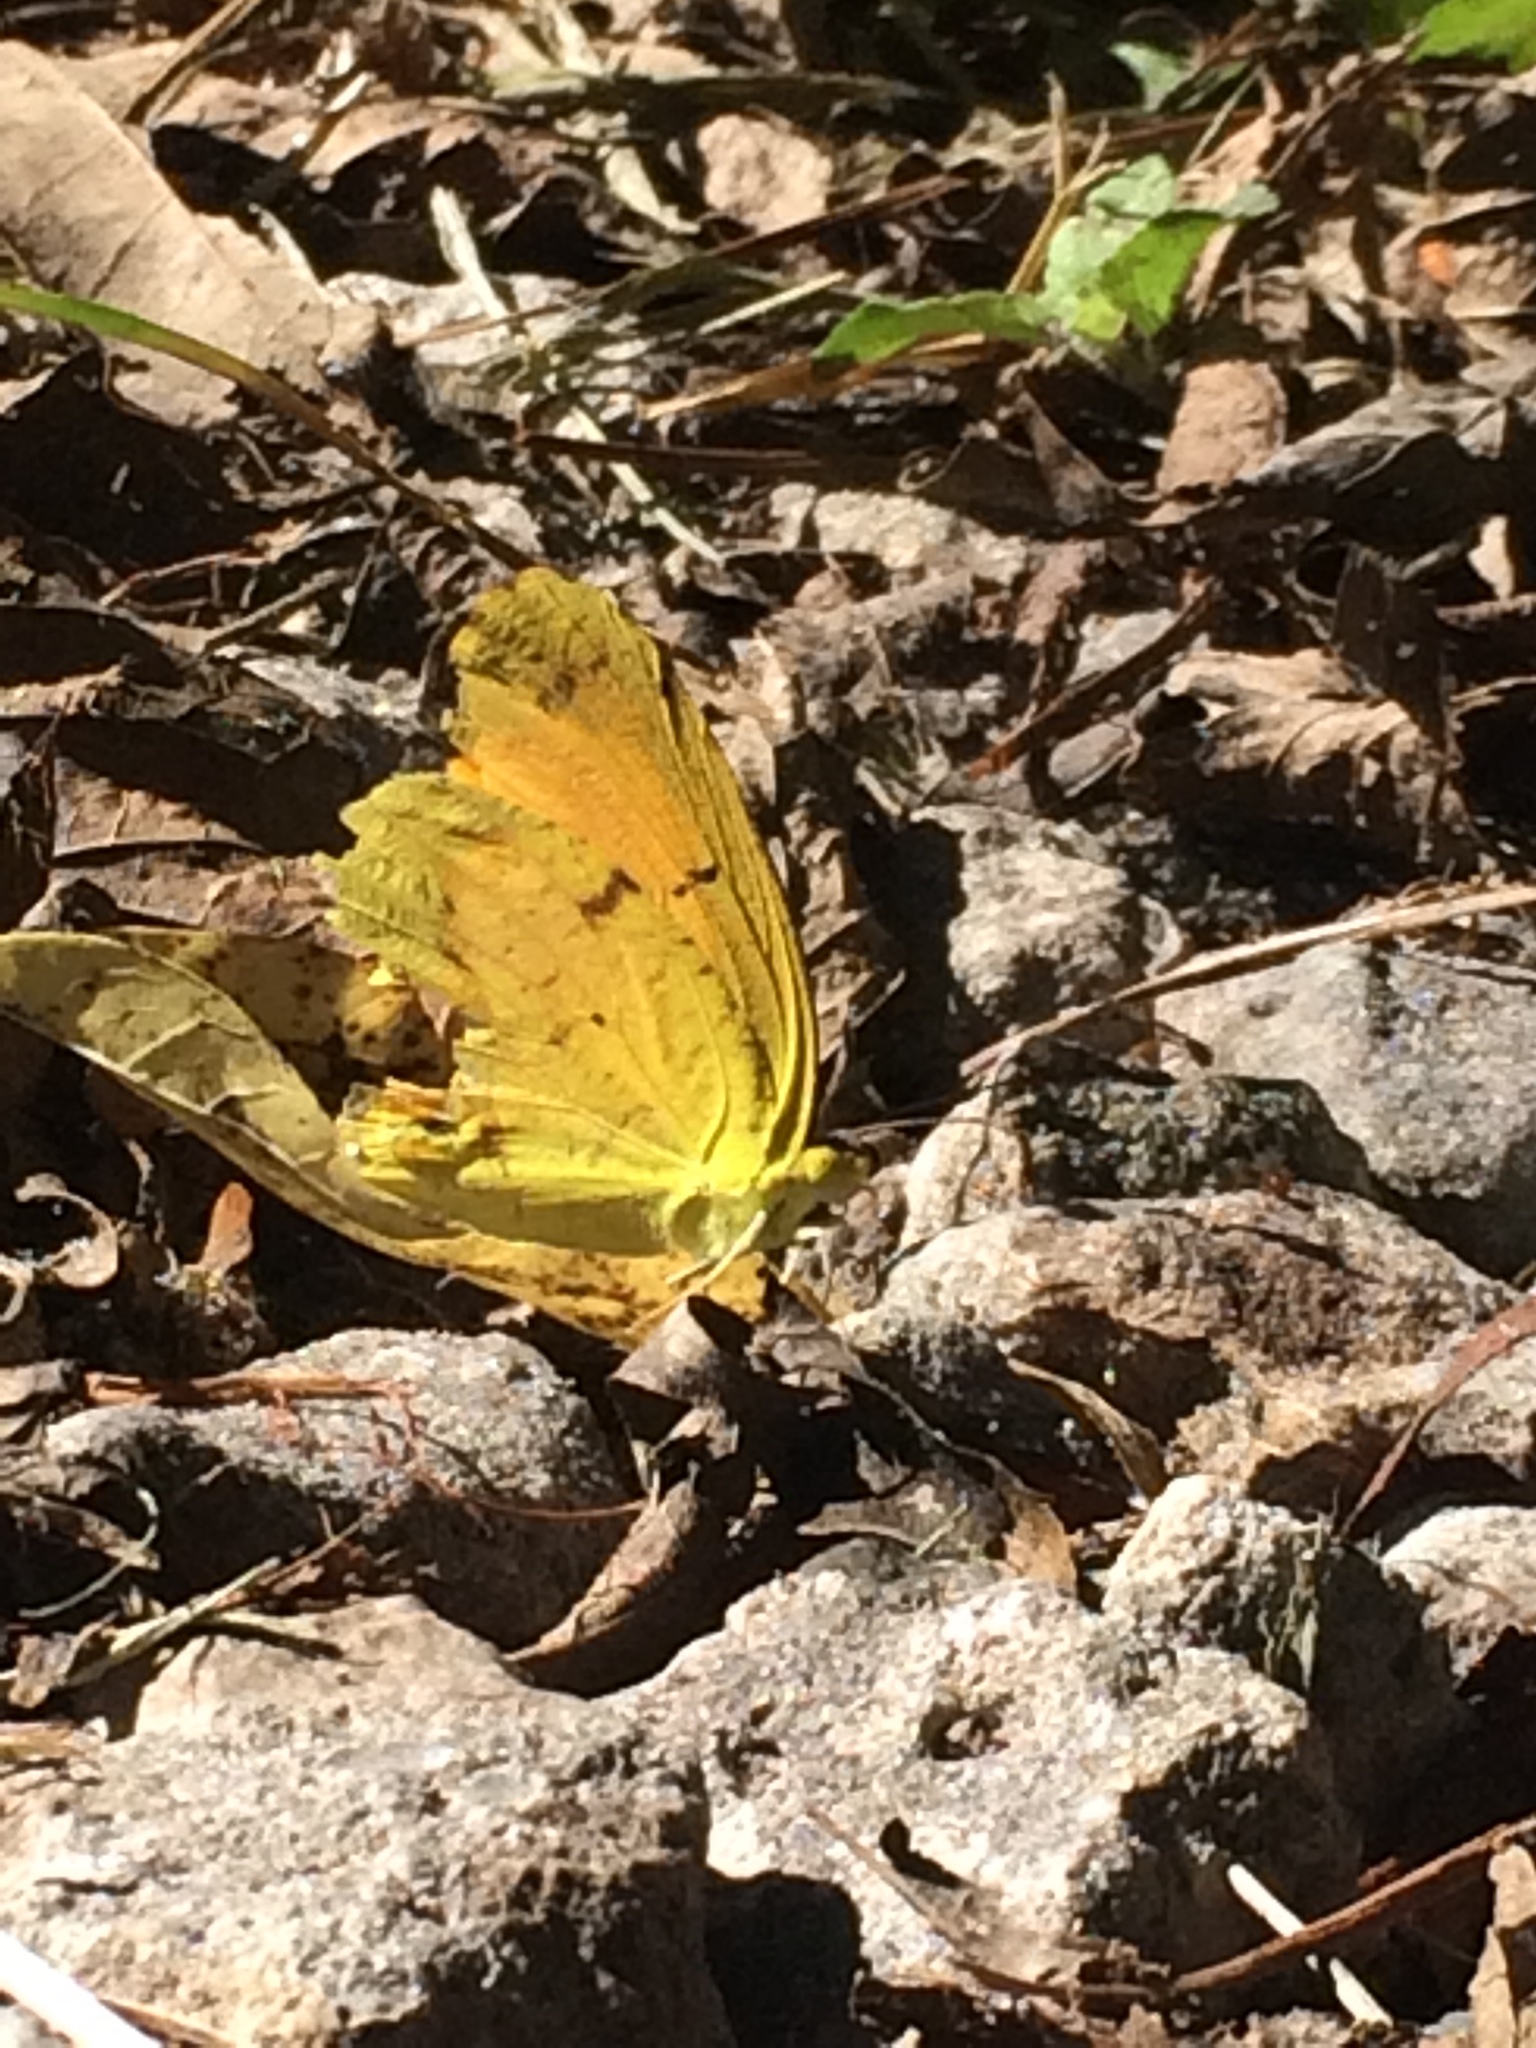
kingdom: Animalia
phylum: Arthropoda
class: Insecta
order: Lepidoptera
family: Pieridae
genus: Abaeis
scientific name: Abaeis nicippe
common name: Sleepy orange
